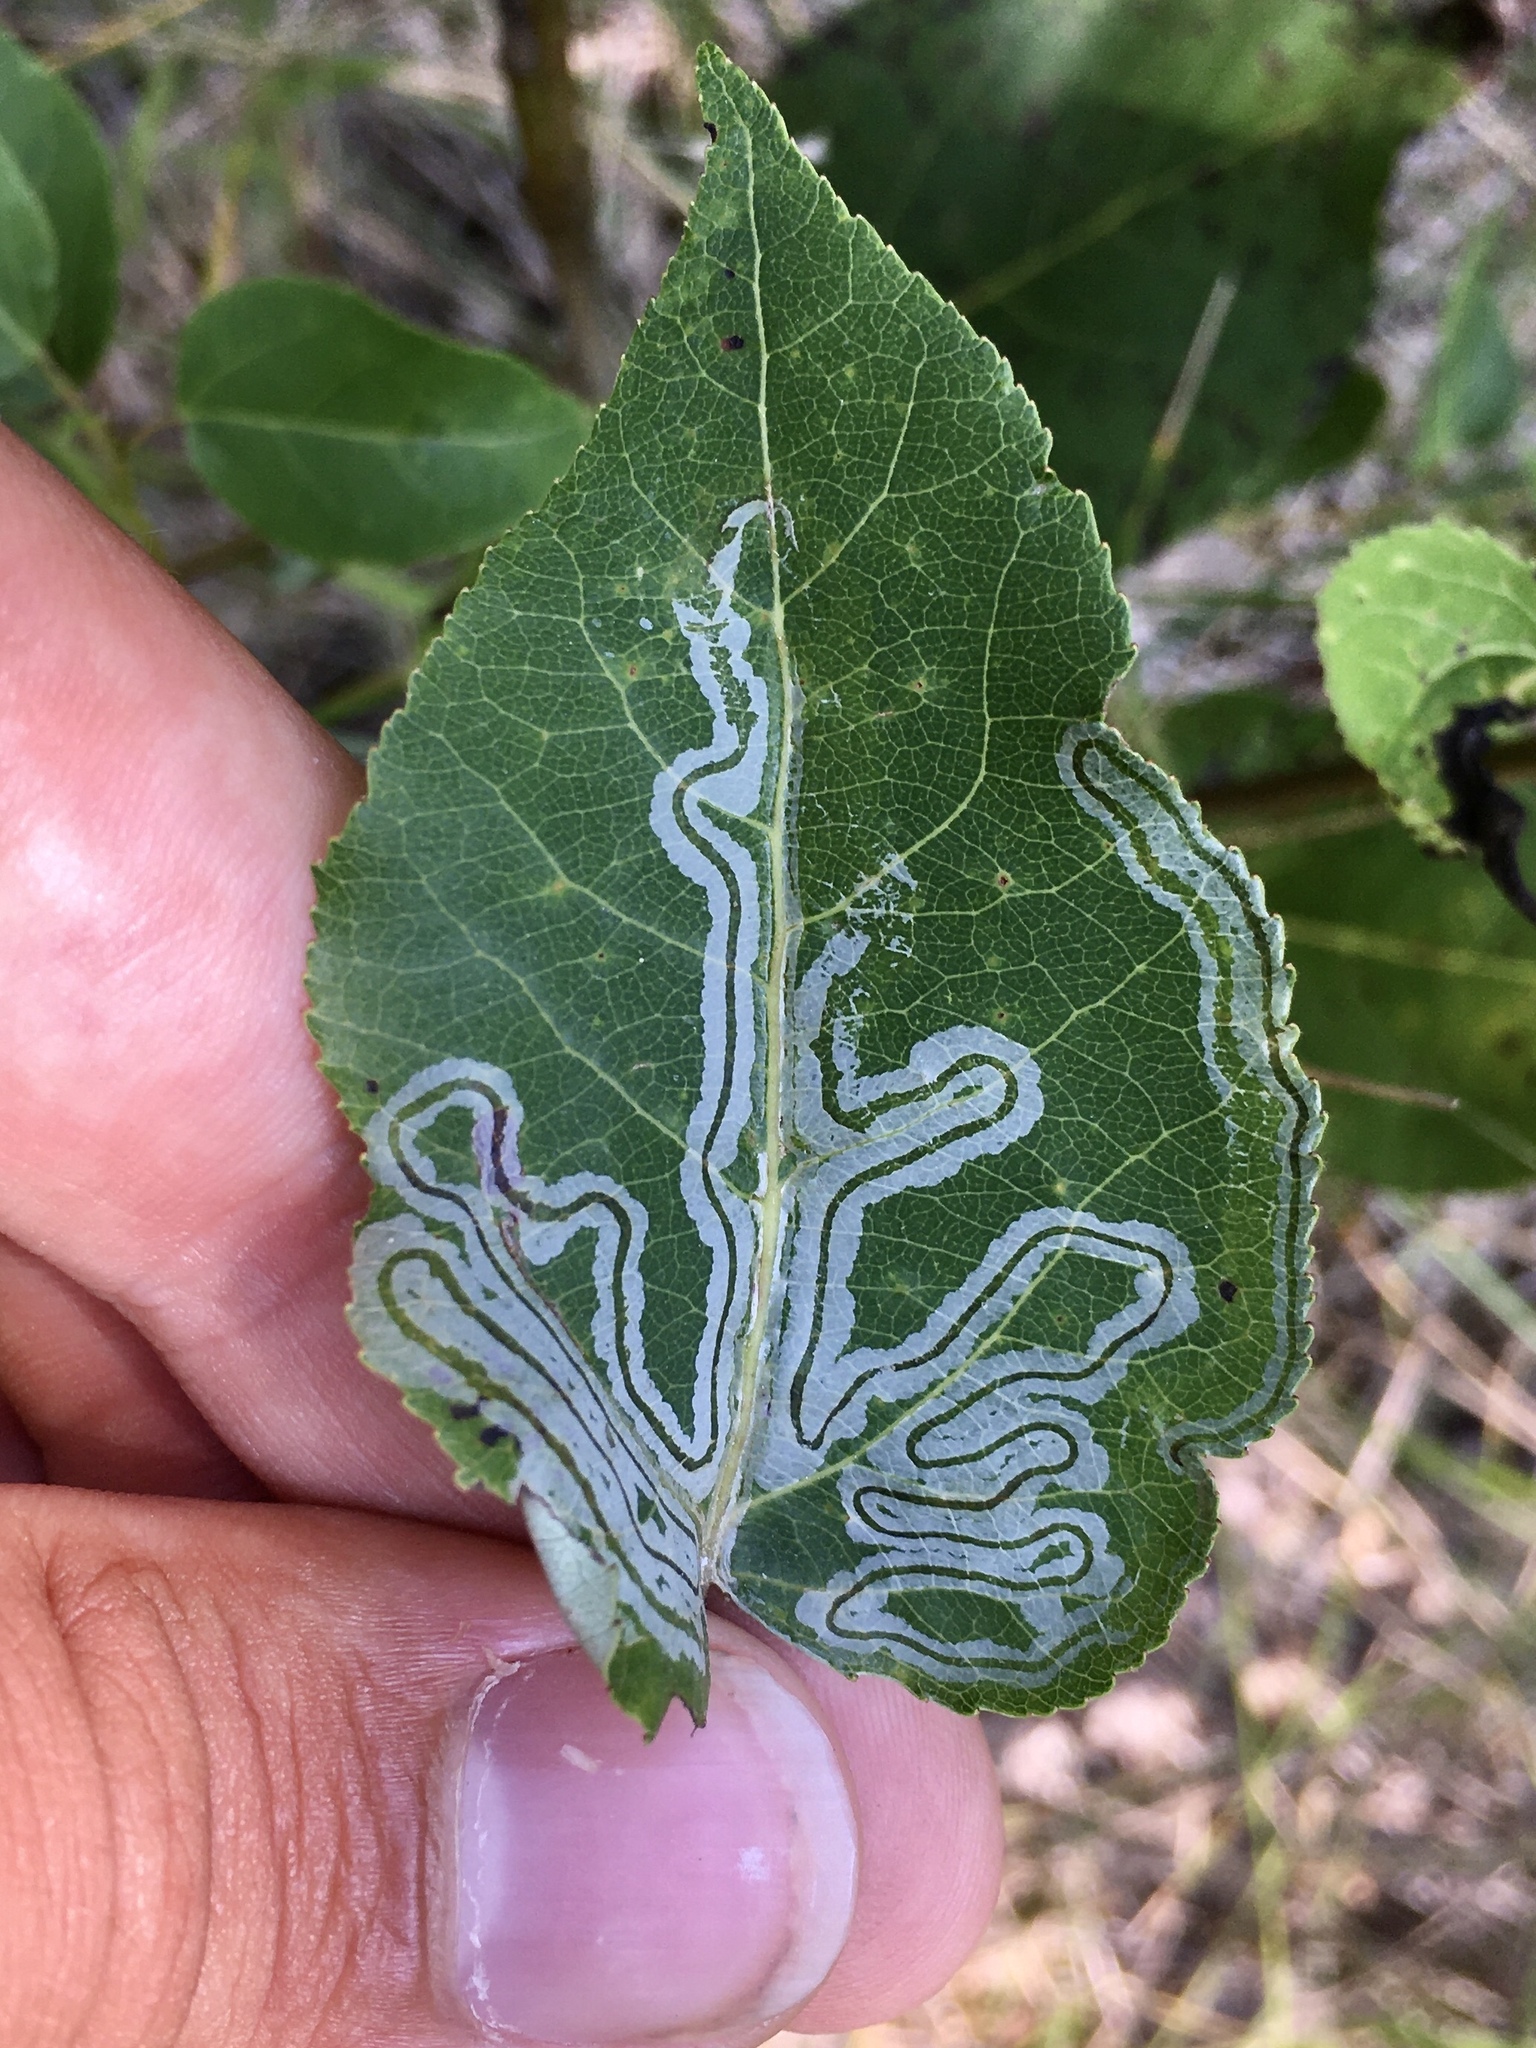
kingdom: Animalia
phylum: Arthropoda
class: Insecta
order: Lepidoptera
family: Gracillariidae
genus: Phyllocnistis
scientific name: Phyllocnistis populiella
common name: Aspen serpentine leafminer moth
